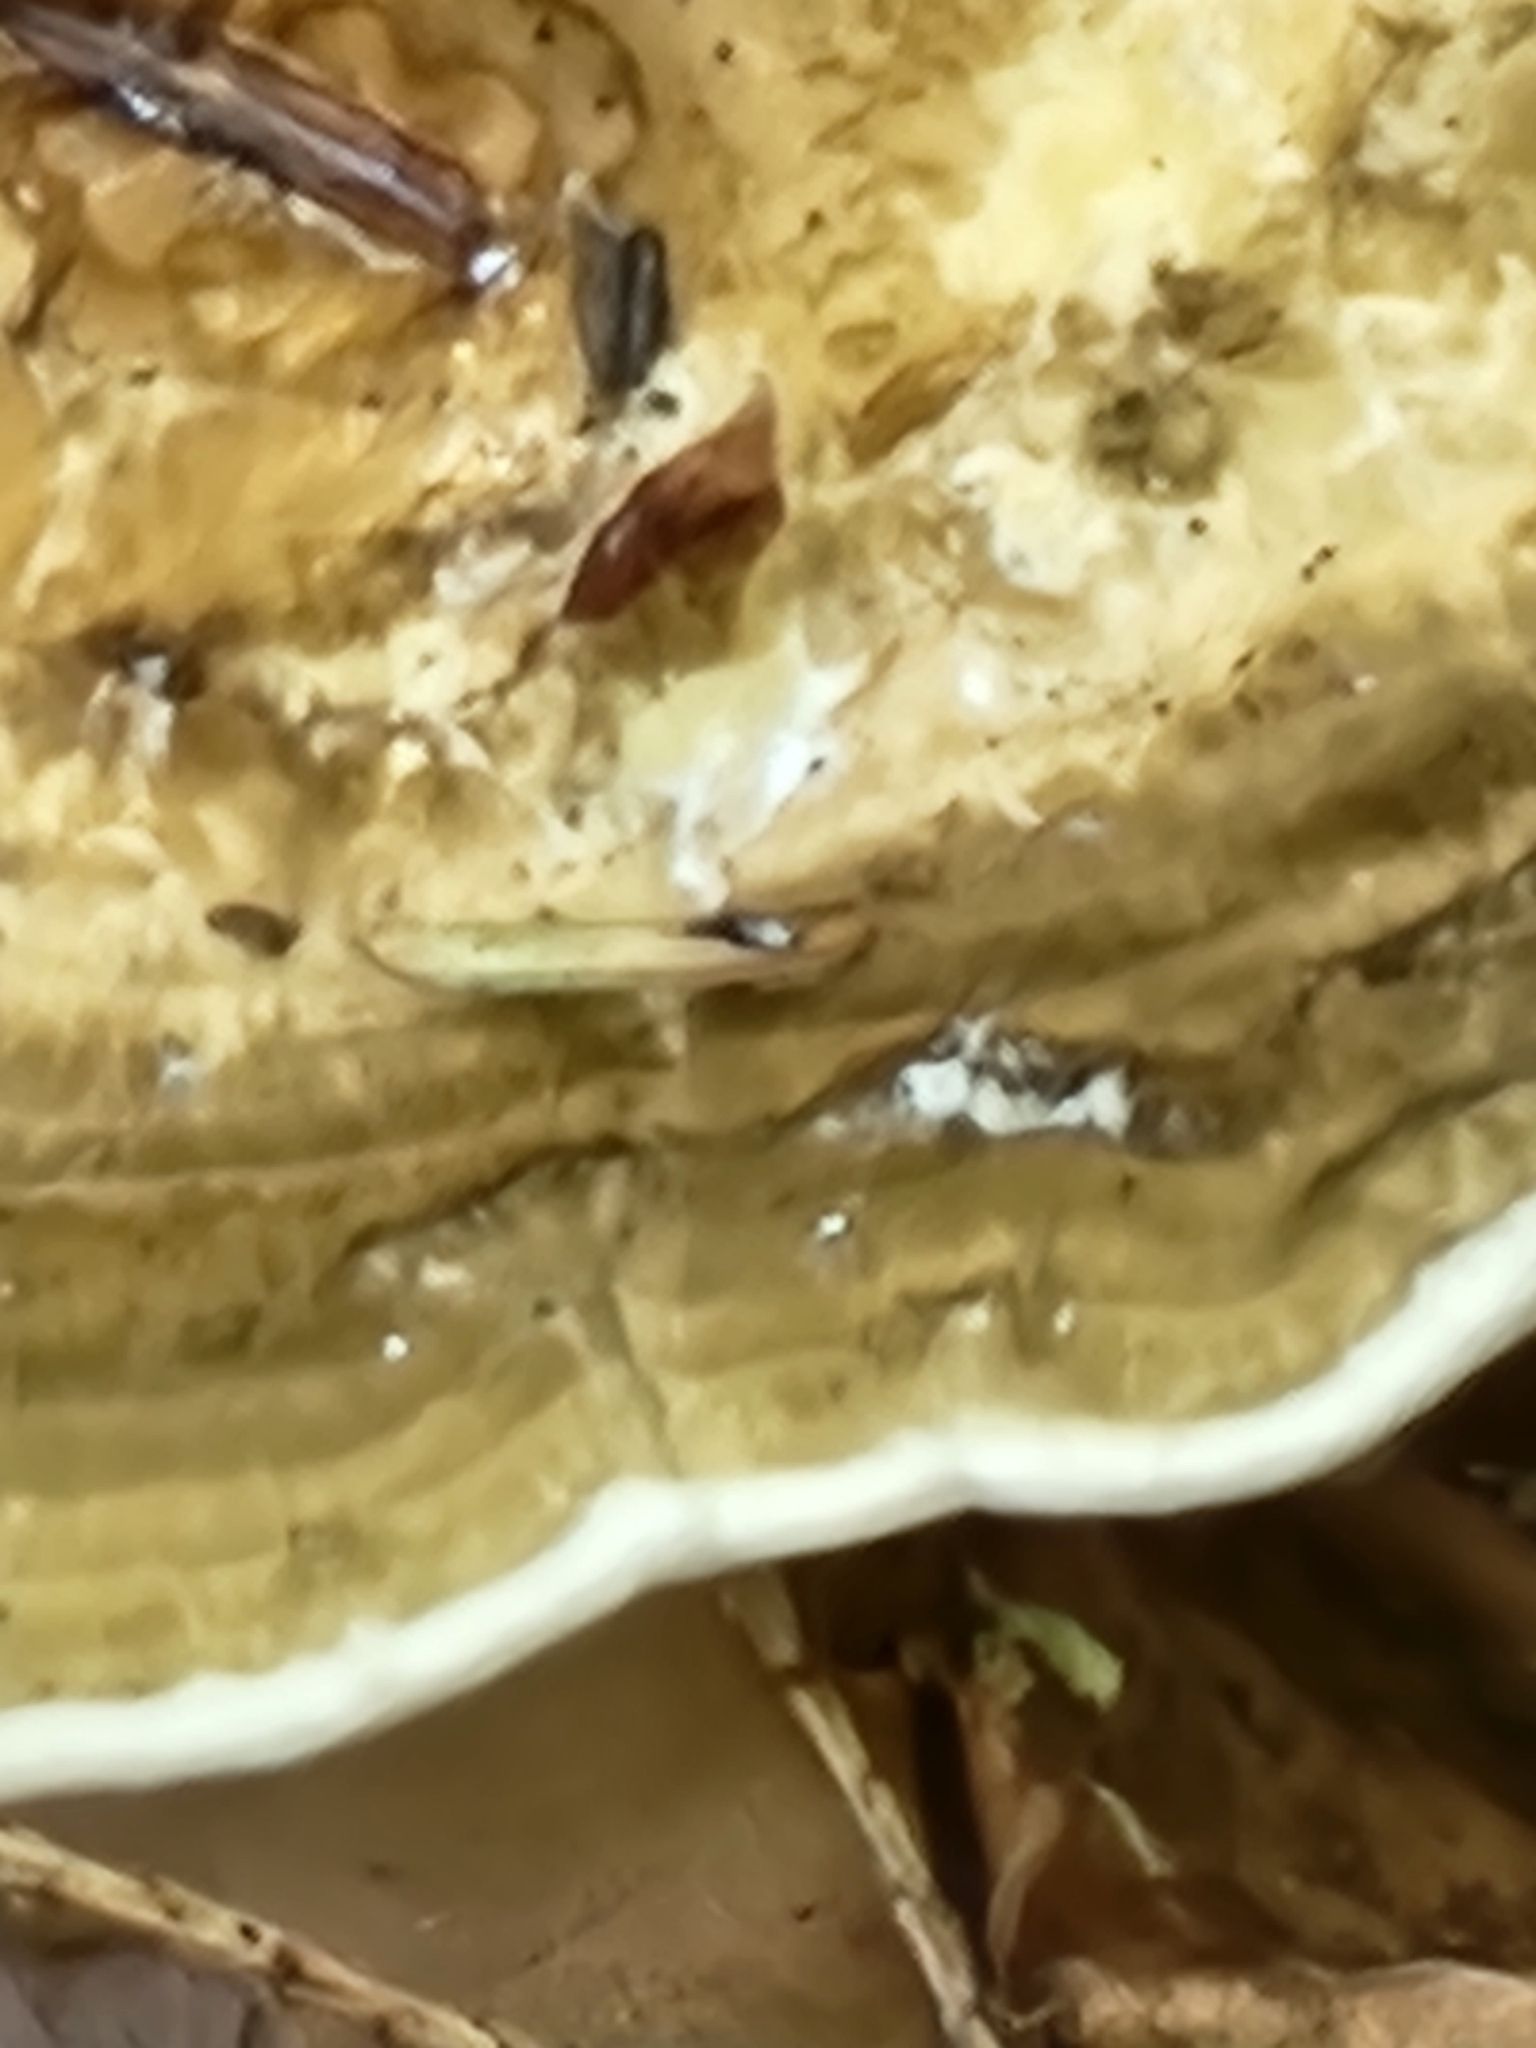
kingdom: Fungi
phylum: Basidiomycota
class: Agaricomycetes
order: Polyporales
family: Polyporaceae
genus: Daedaleopsis
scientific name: Daedaleopsis confragosa
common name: Blushing bracket
